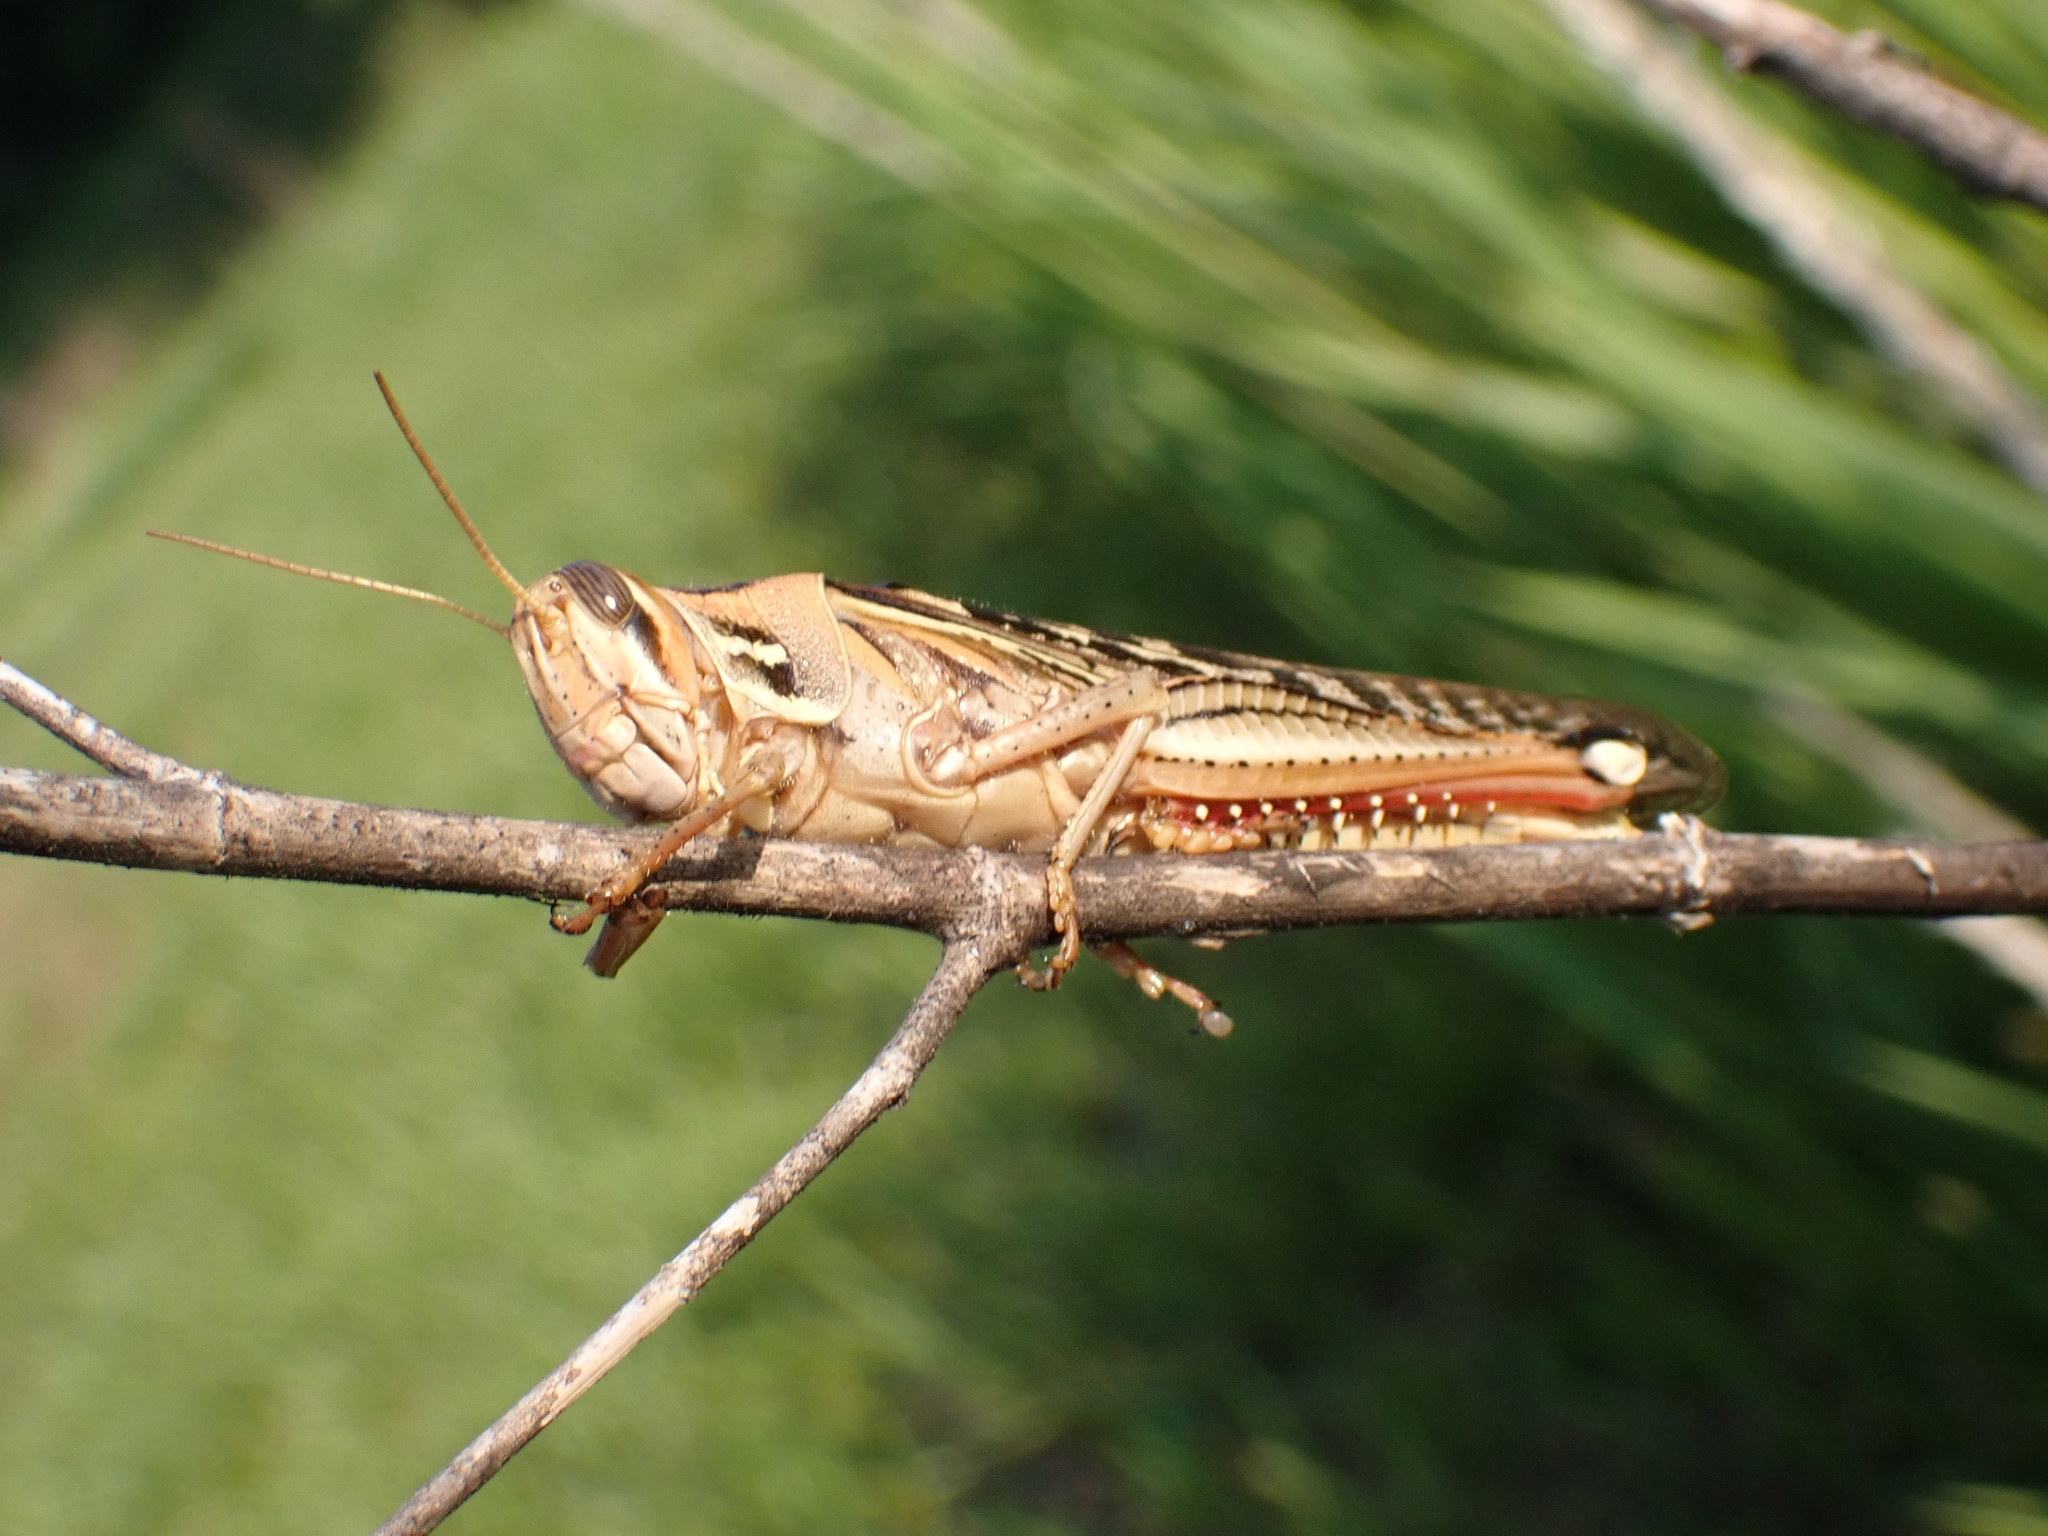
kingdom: Animalia
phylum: Arthropoda
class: Insecta
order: Orthoptera
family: Acrididae
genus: Schistocerca
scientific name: Schistocerca americana
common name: American bird locust
